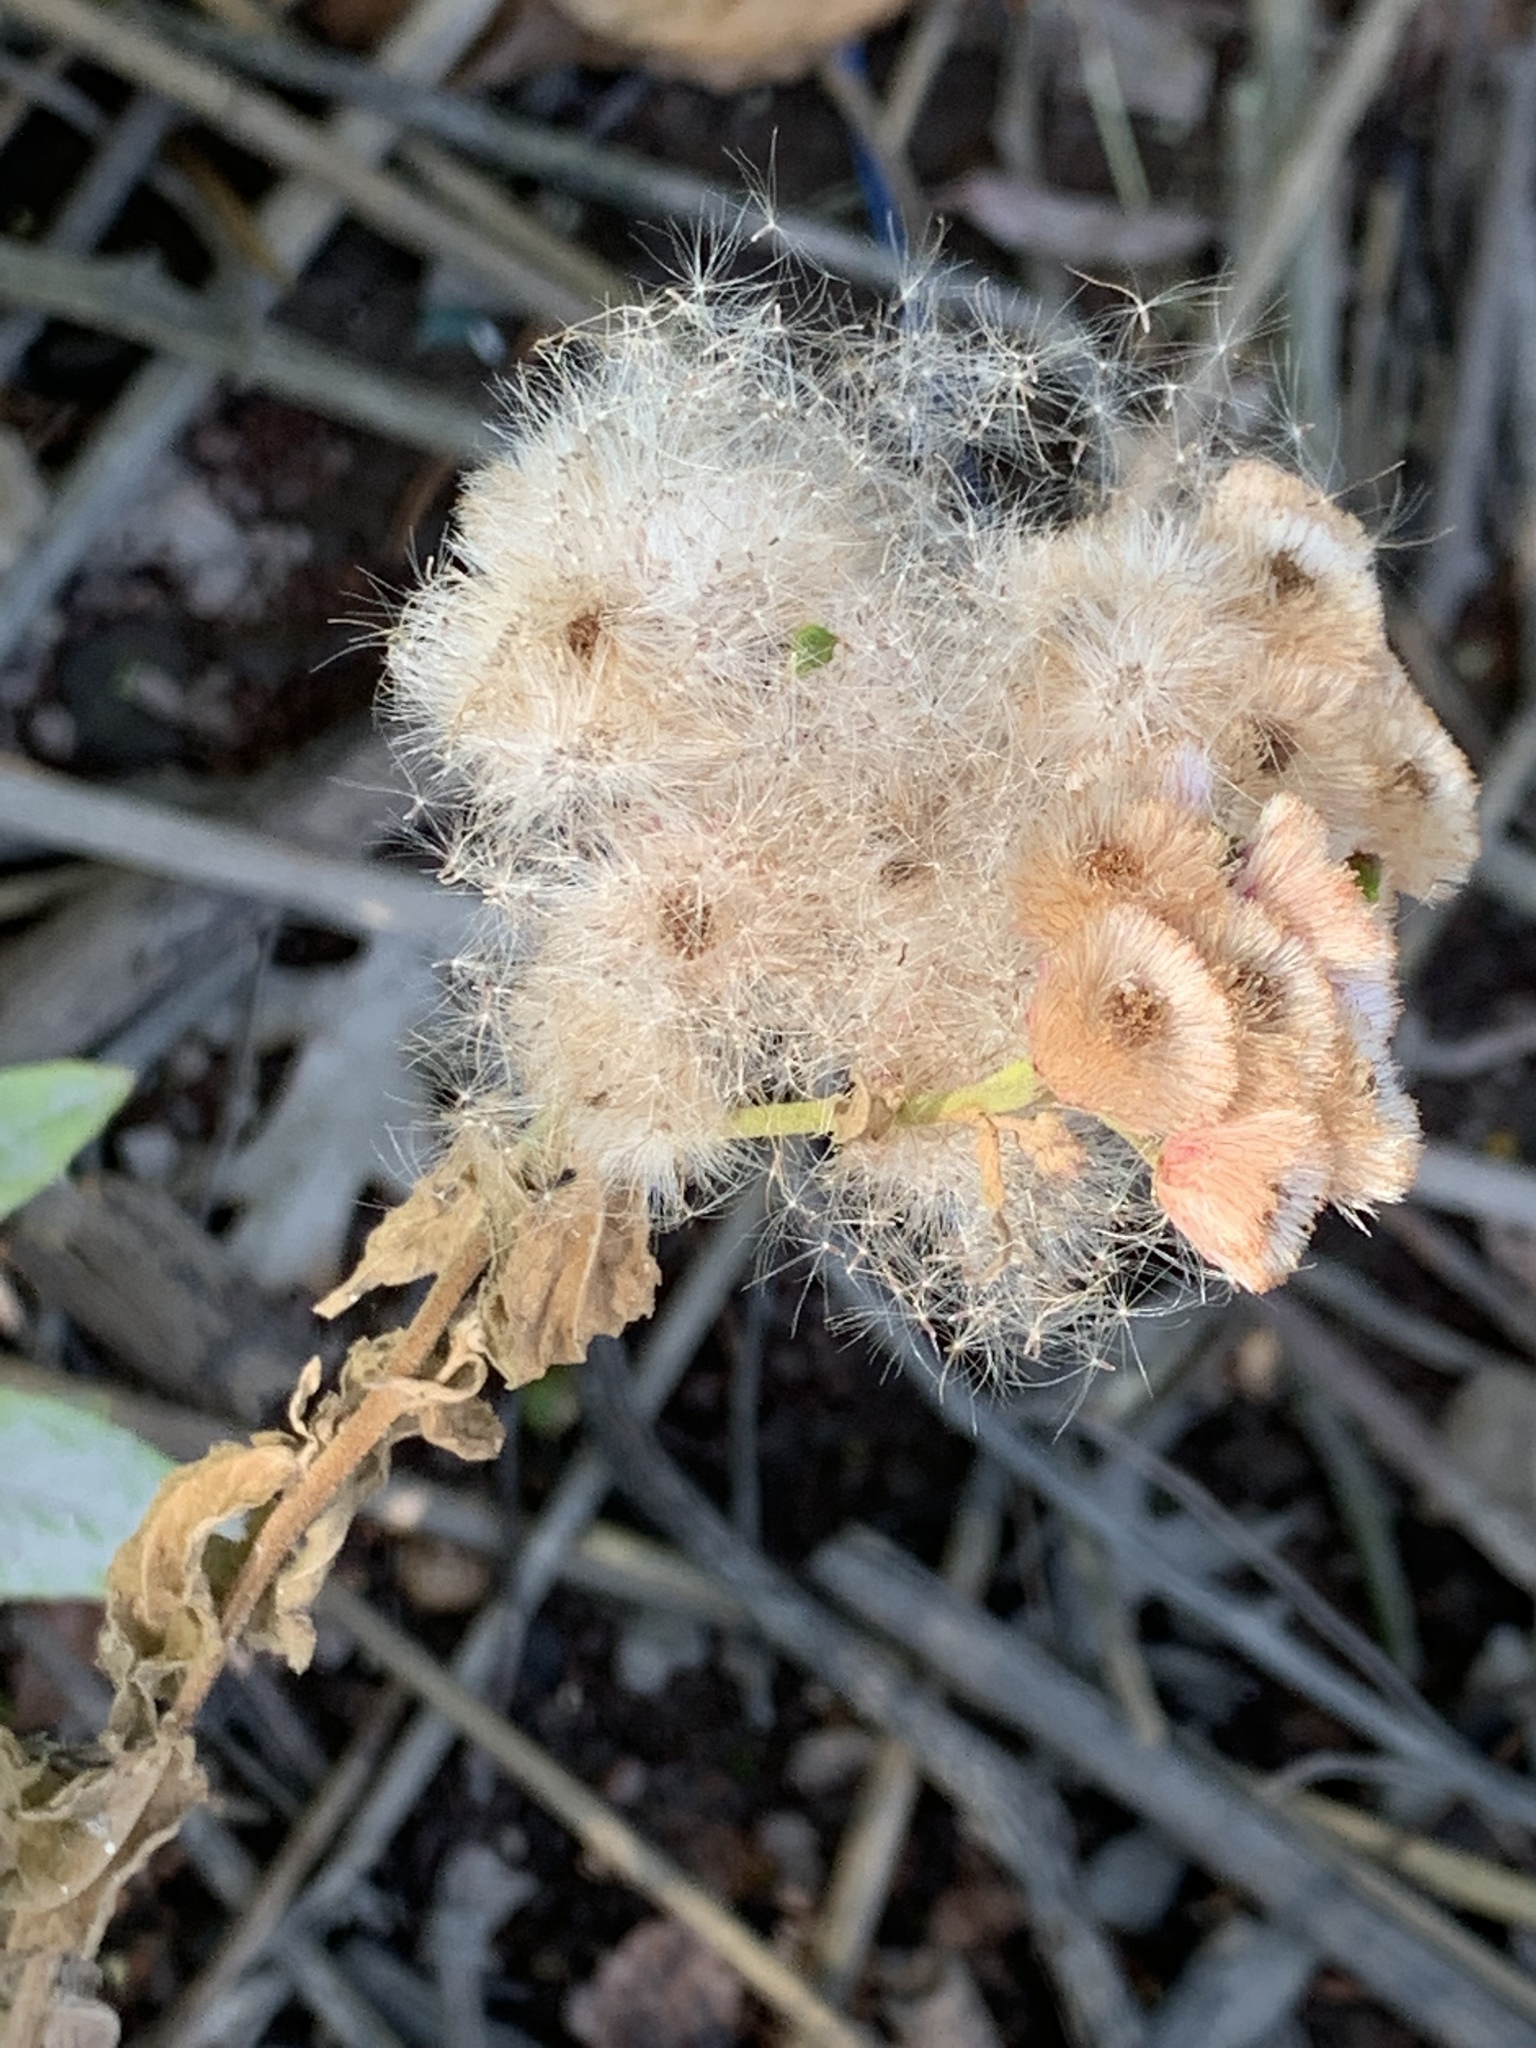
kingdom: Plantae
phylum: Tracheophyta
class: Magnoliopsida
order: Asterales
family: Asteraceae
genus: Pluchea
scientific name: Pluchea odorata
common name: Saltmarsh fleabane
